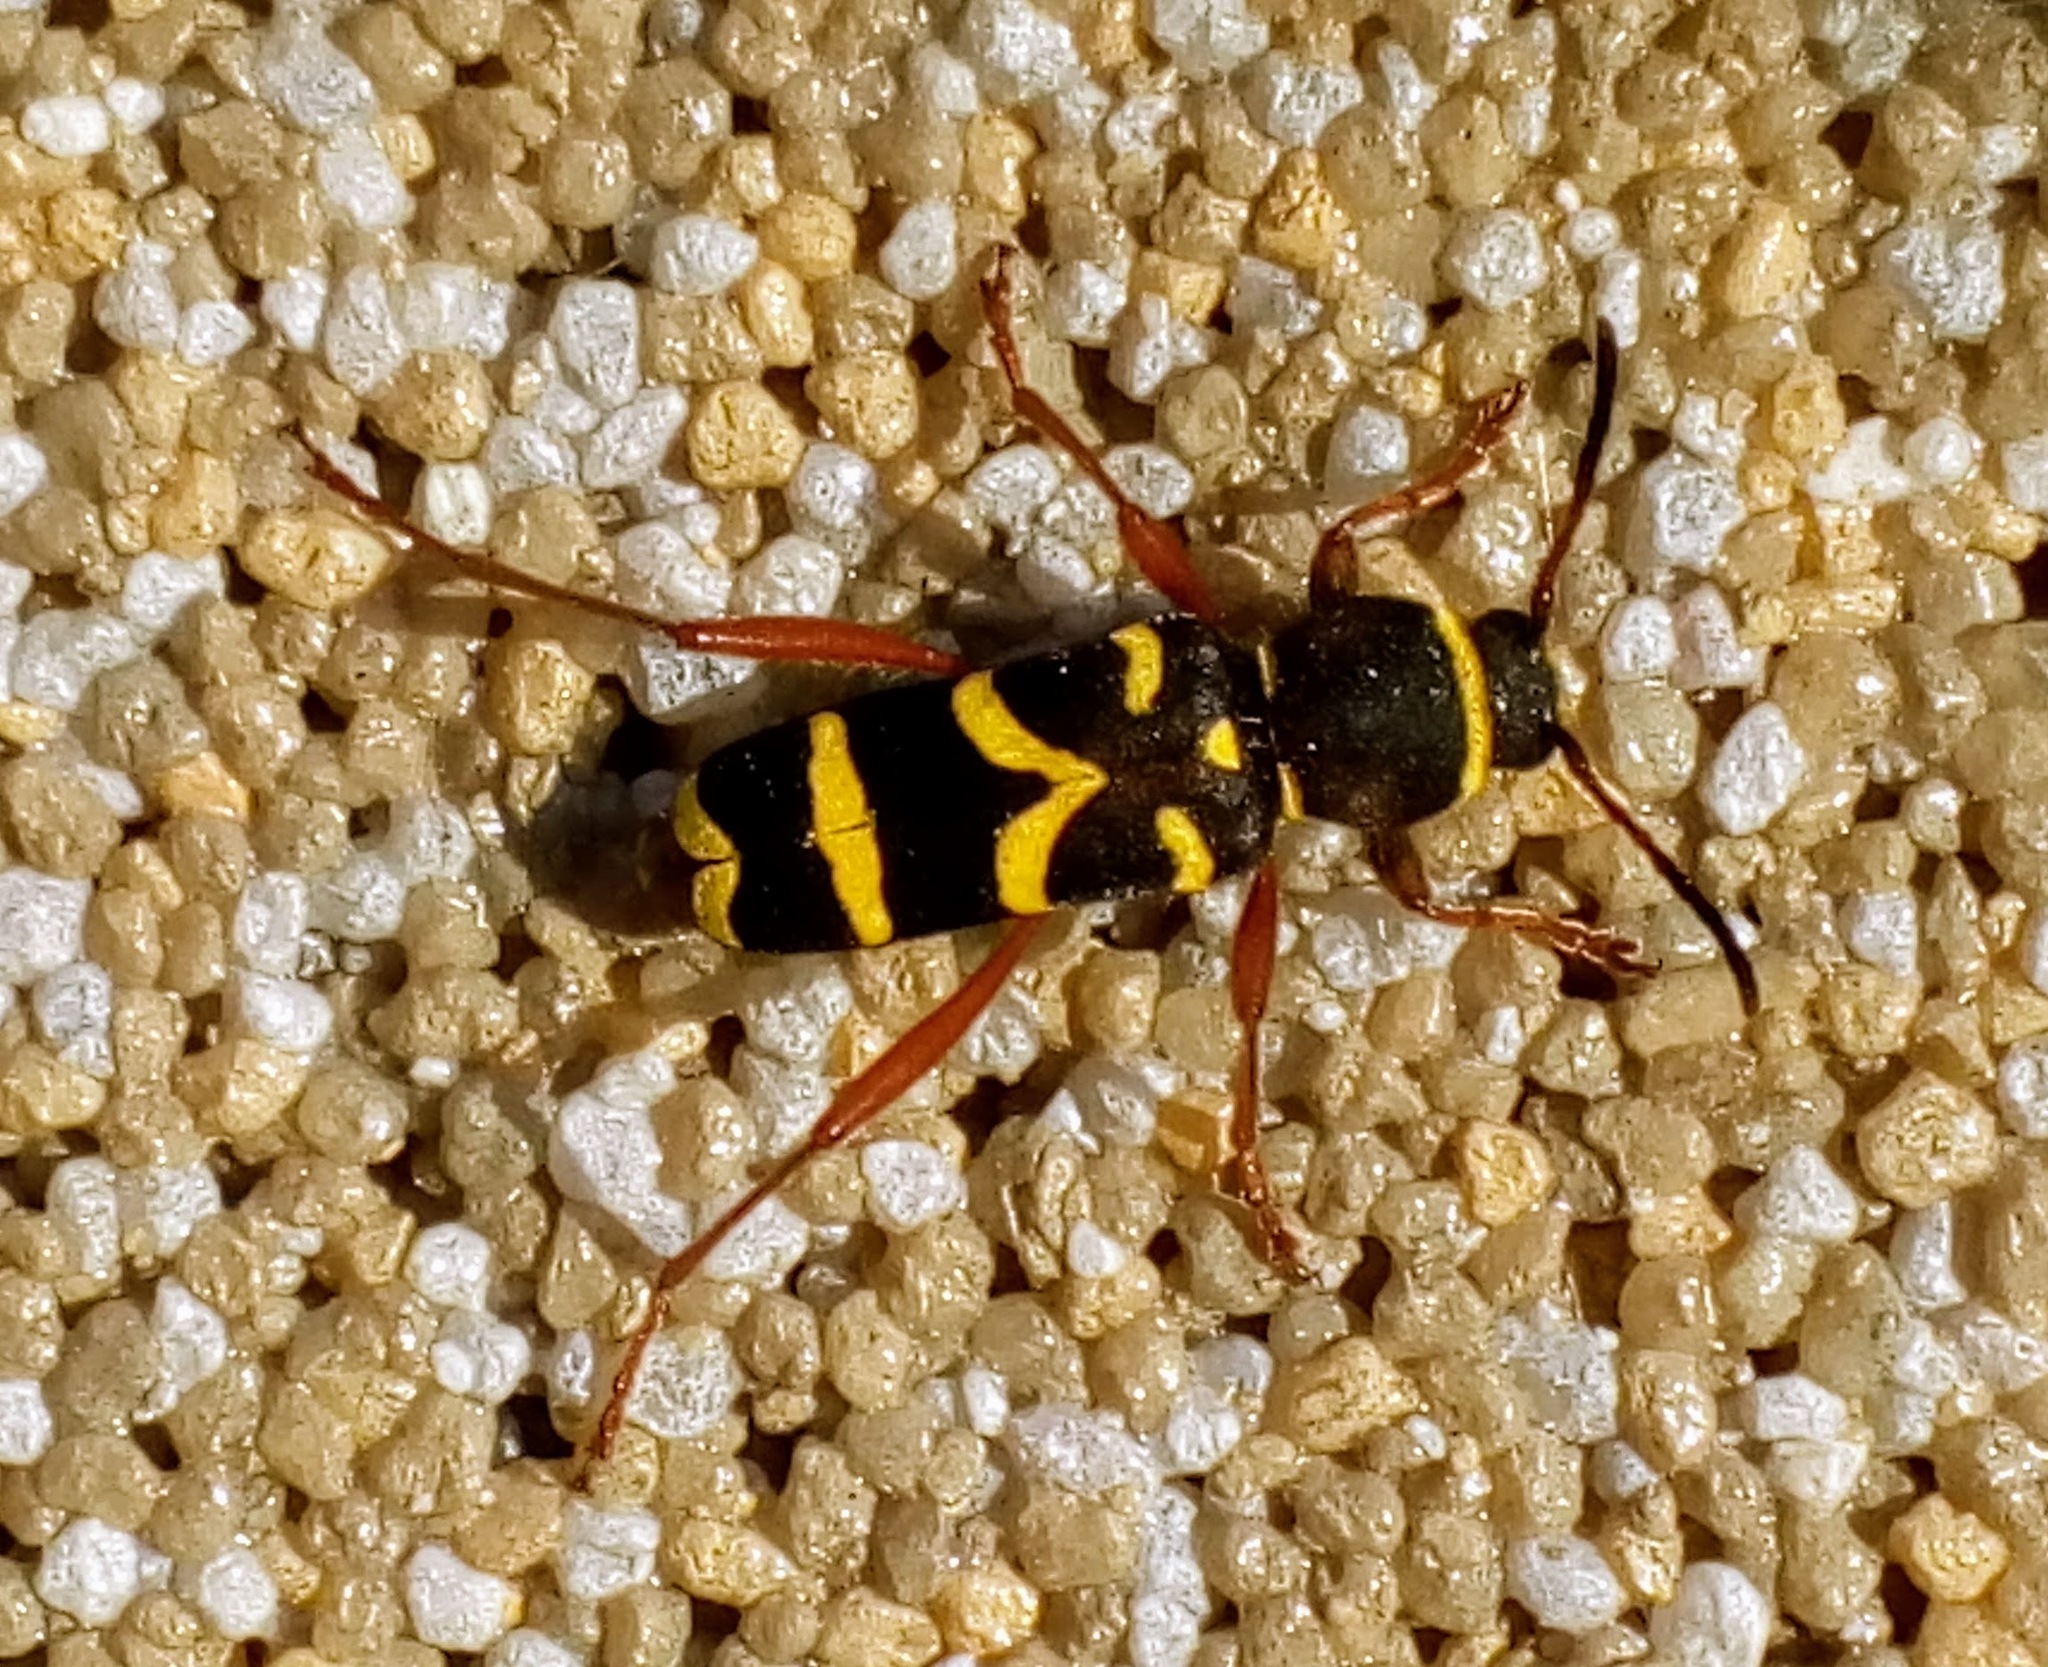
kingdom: Animalia
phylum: Arthropoda
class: Insecta
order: Coleoptera
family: Cerambycidae
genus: Clytus
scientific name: Clytus arietis
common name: Wasp beetle
